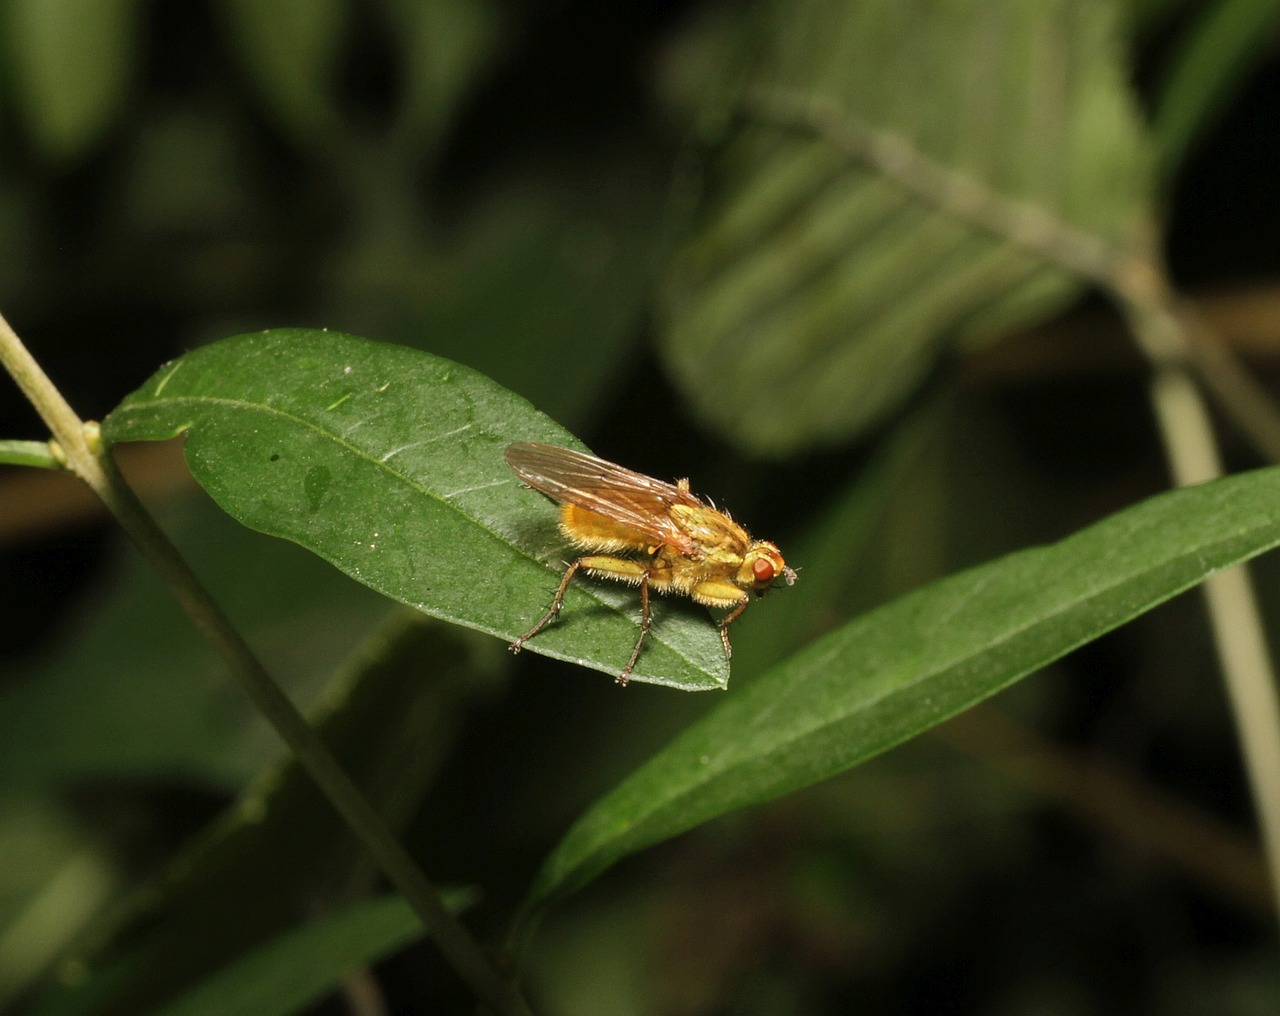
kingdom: Animalia
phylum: Arthropoda
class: Insecta
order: Diptera
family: Scathophagidae
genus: Scathophaga
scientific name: Scathophaga stercoraria
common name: Yellow dung fly
